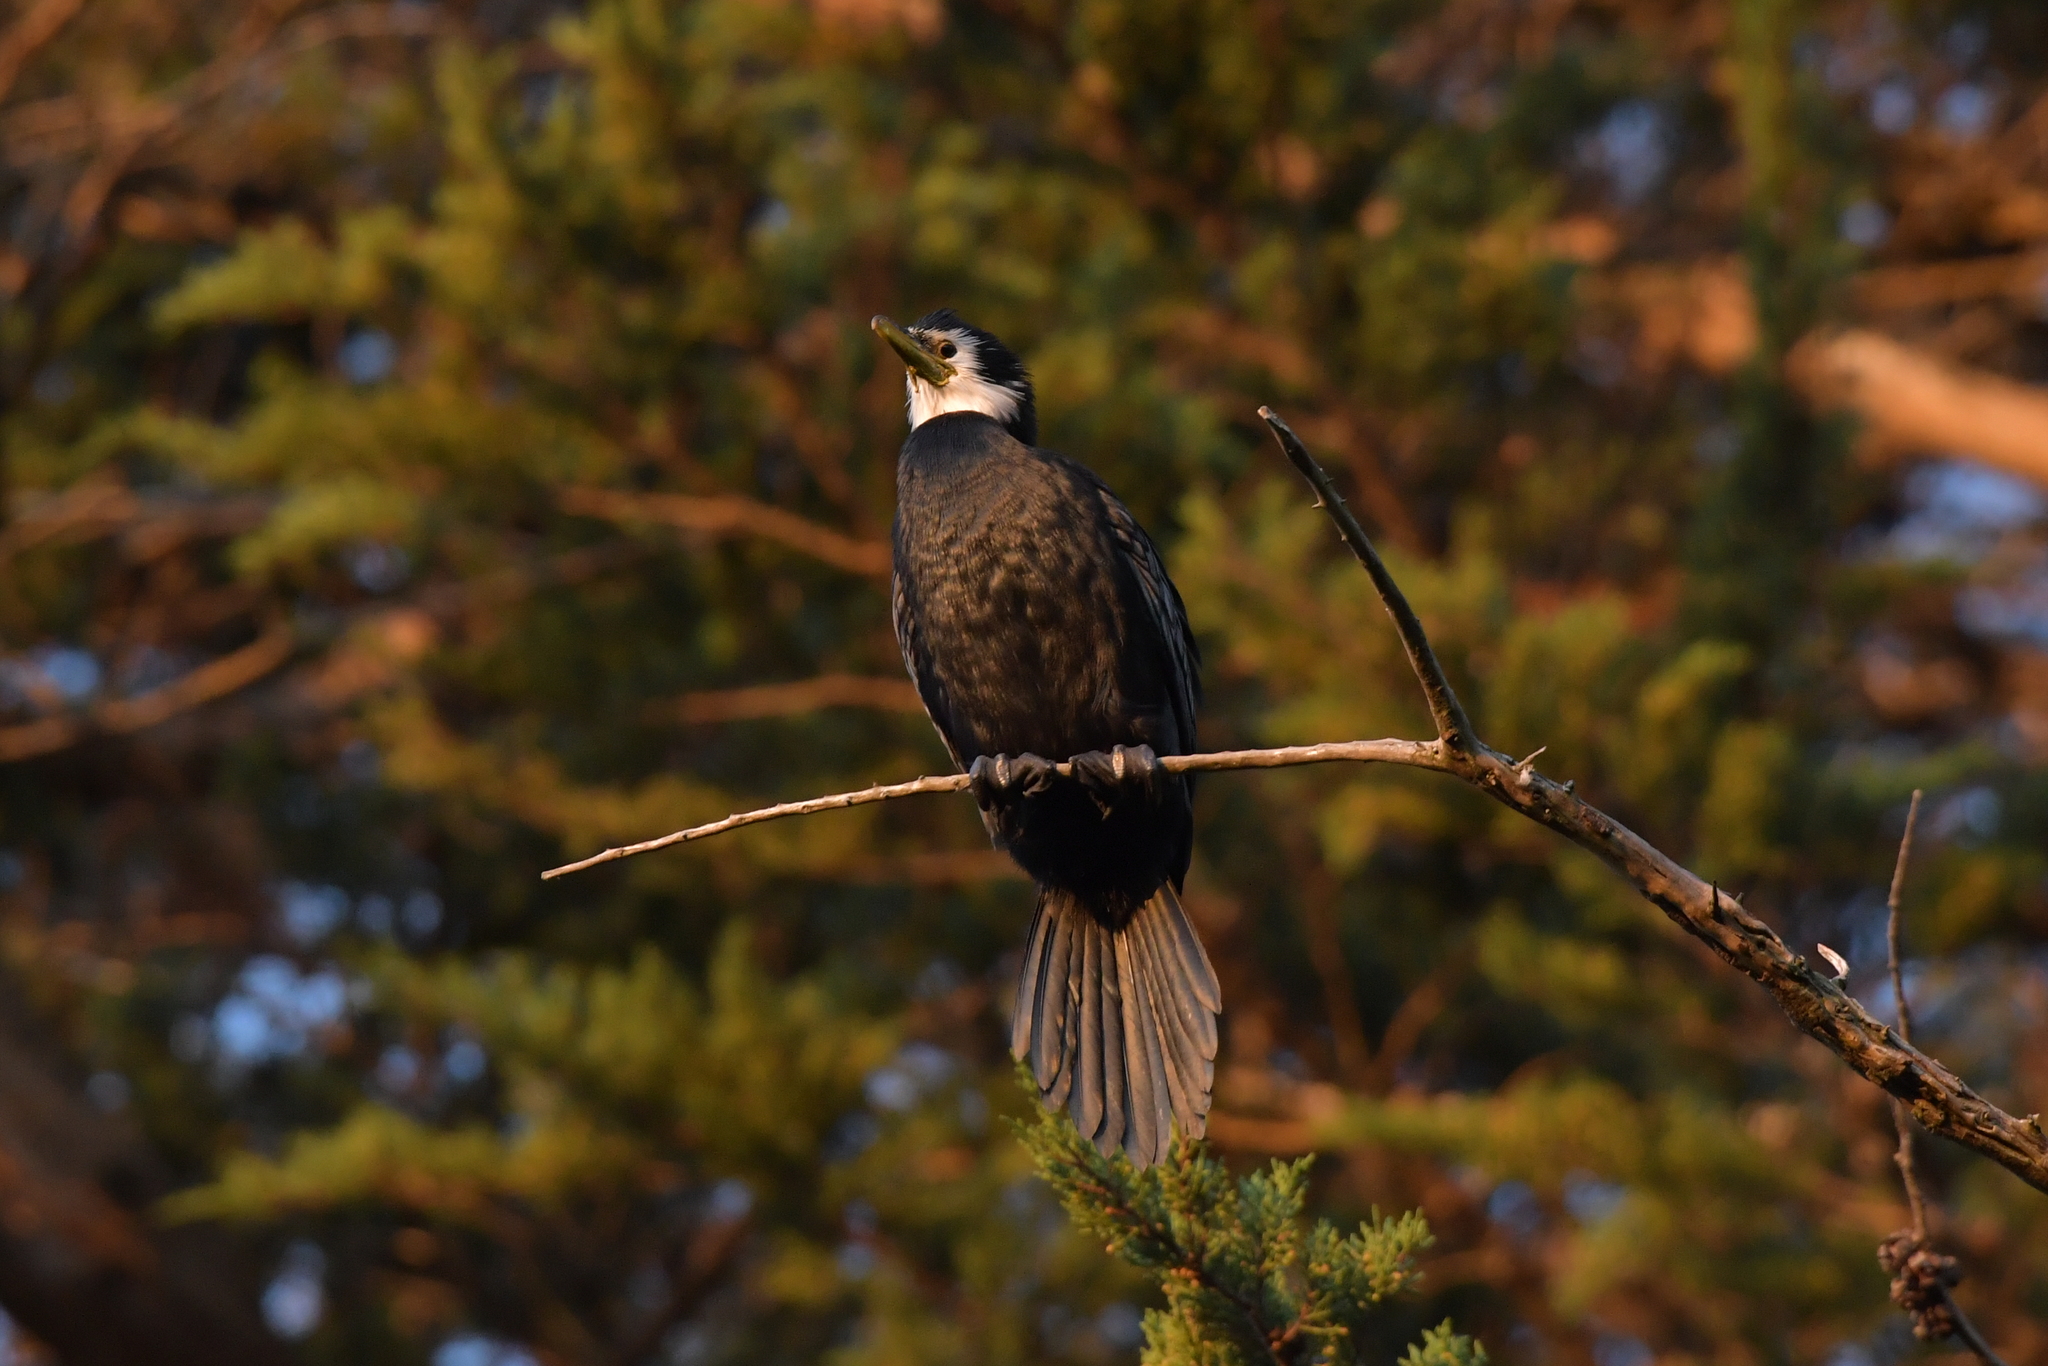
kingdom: Animalia
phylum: Chordata
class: Aves
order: Suliformes
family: Phalacrocoracidae
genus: Microcarbo
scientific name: Microcarbo melanoleucos
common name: Little pied cormorant
